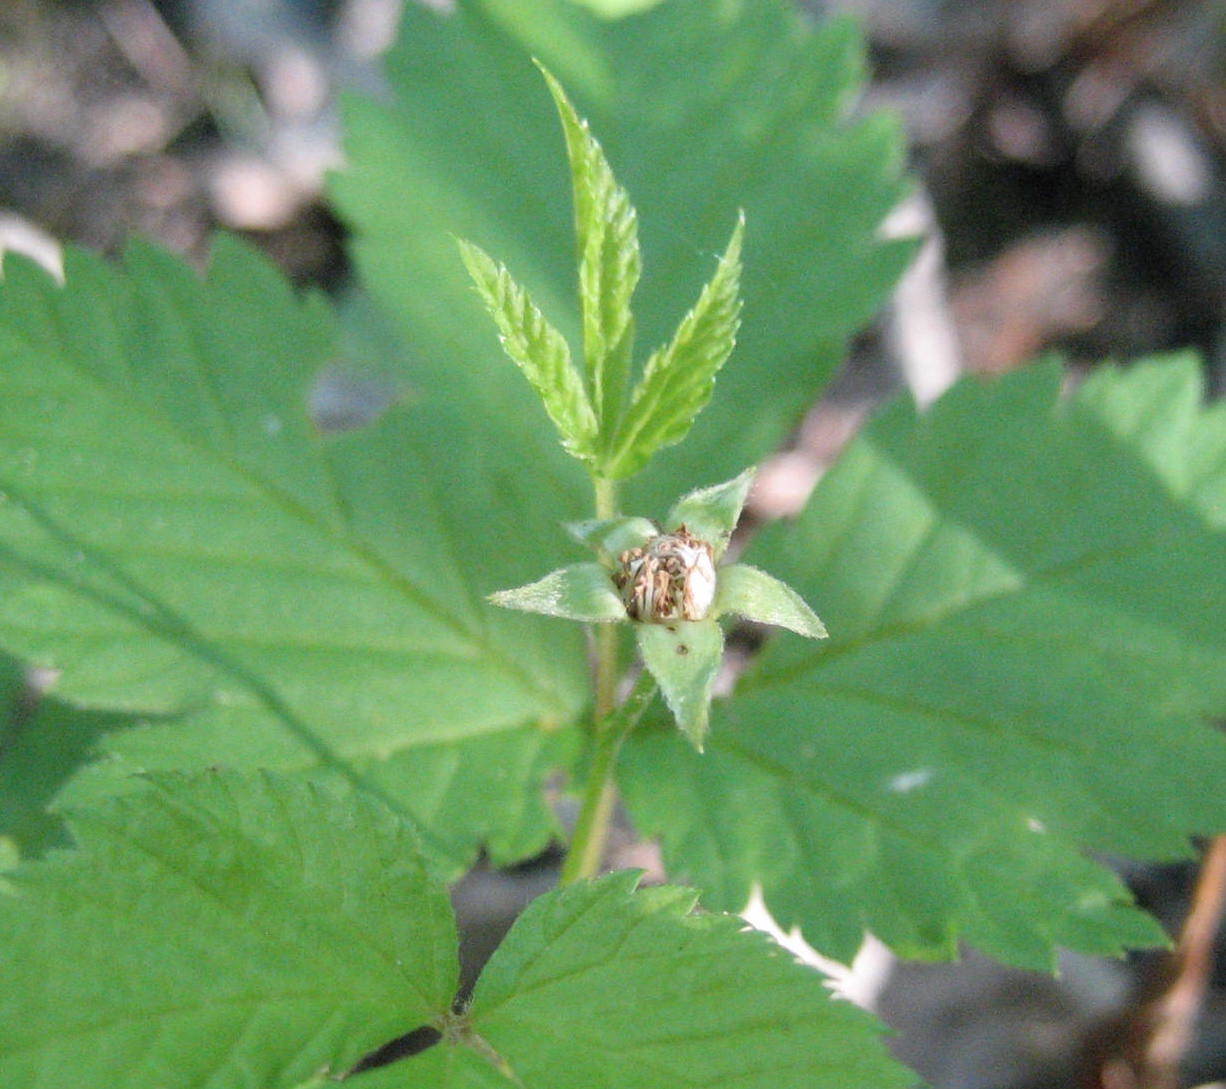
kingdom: Plantae
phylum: Tracheophyta
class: Magnoliopsida
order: Rosales
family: Rosaceae
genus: Rubus
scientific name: Rubus pubescens
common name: Dwarf raspberry
